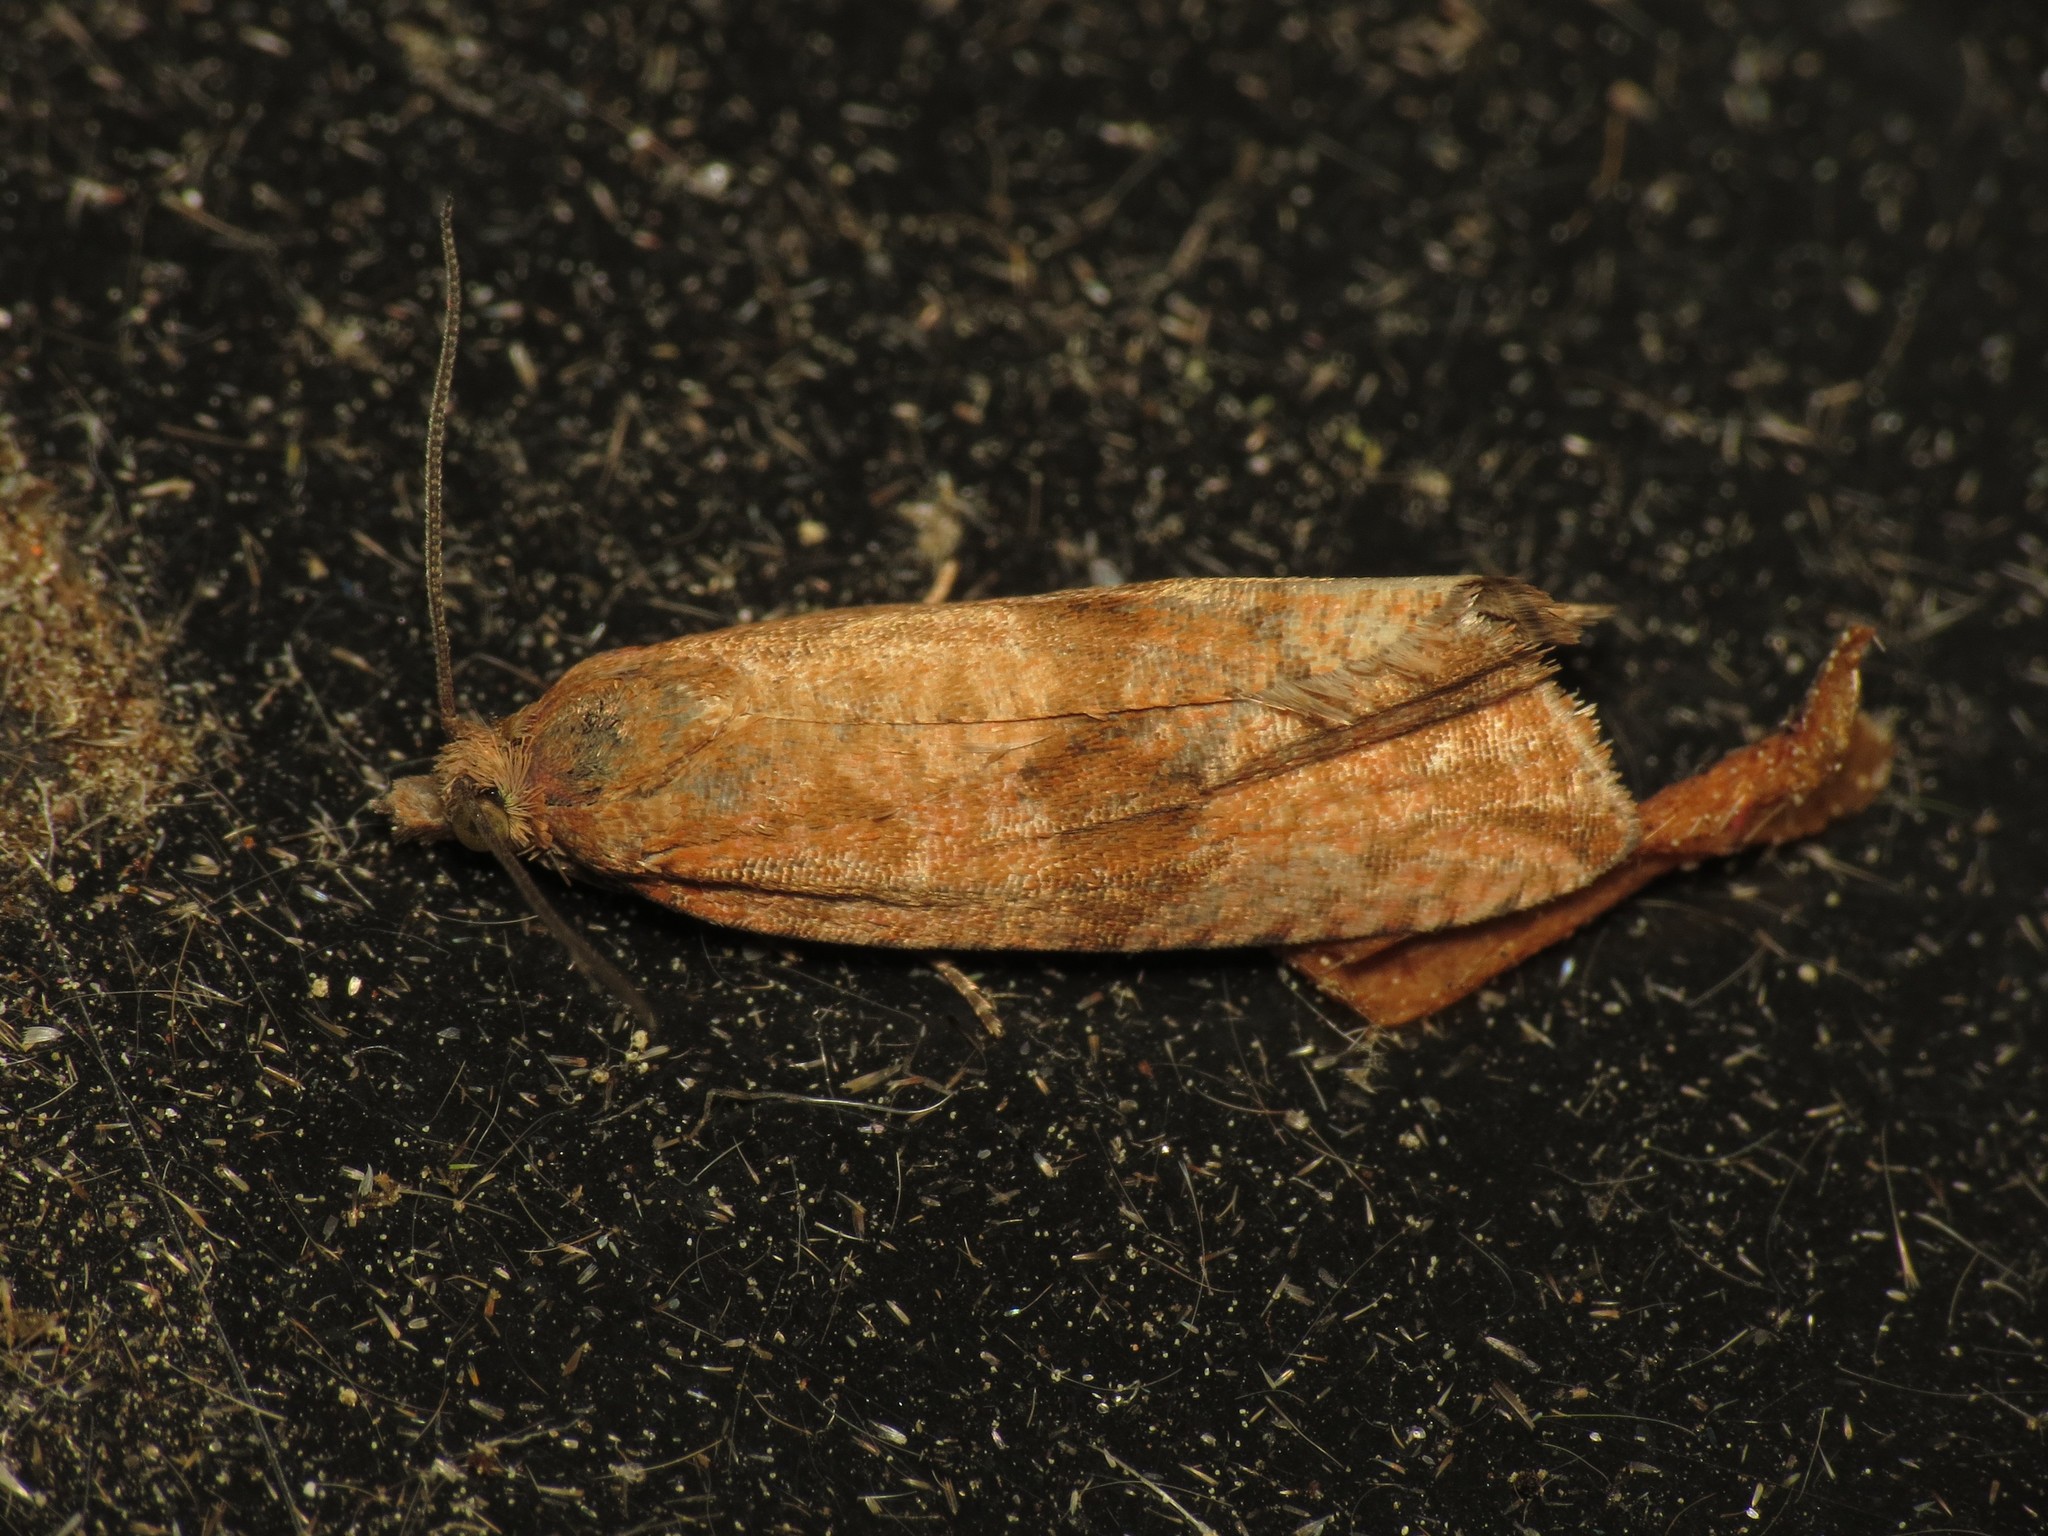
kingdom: Animalia
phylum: Arthropoda
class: Insecta
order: Lepidoptera
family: Tortricidae
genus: Celypha
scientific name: Celypha striana
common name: Barred marble
